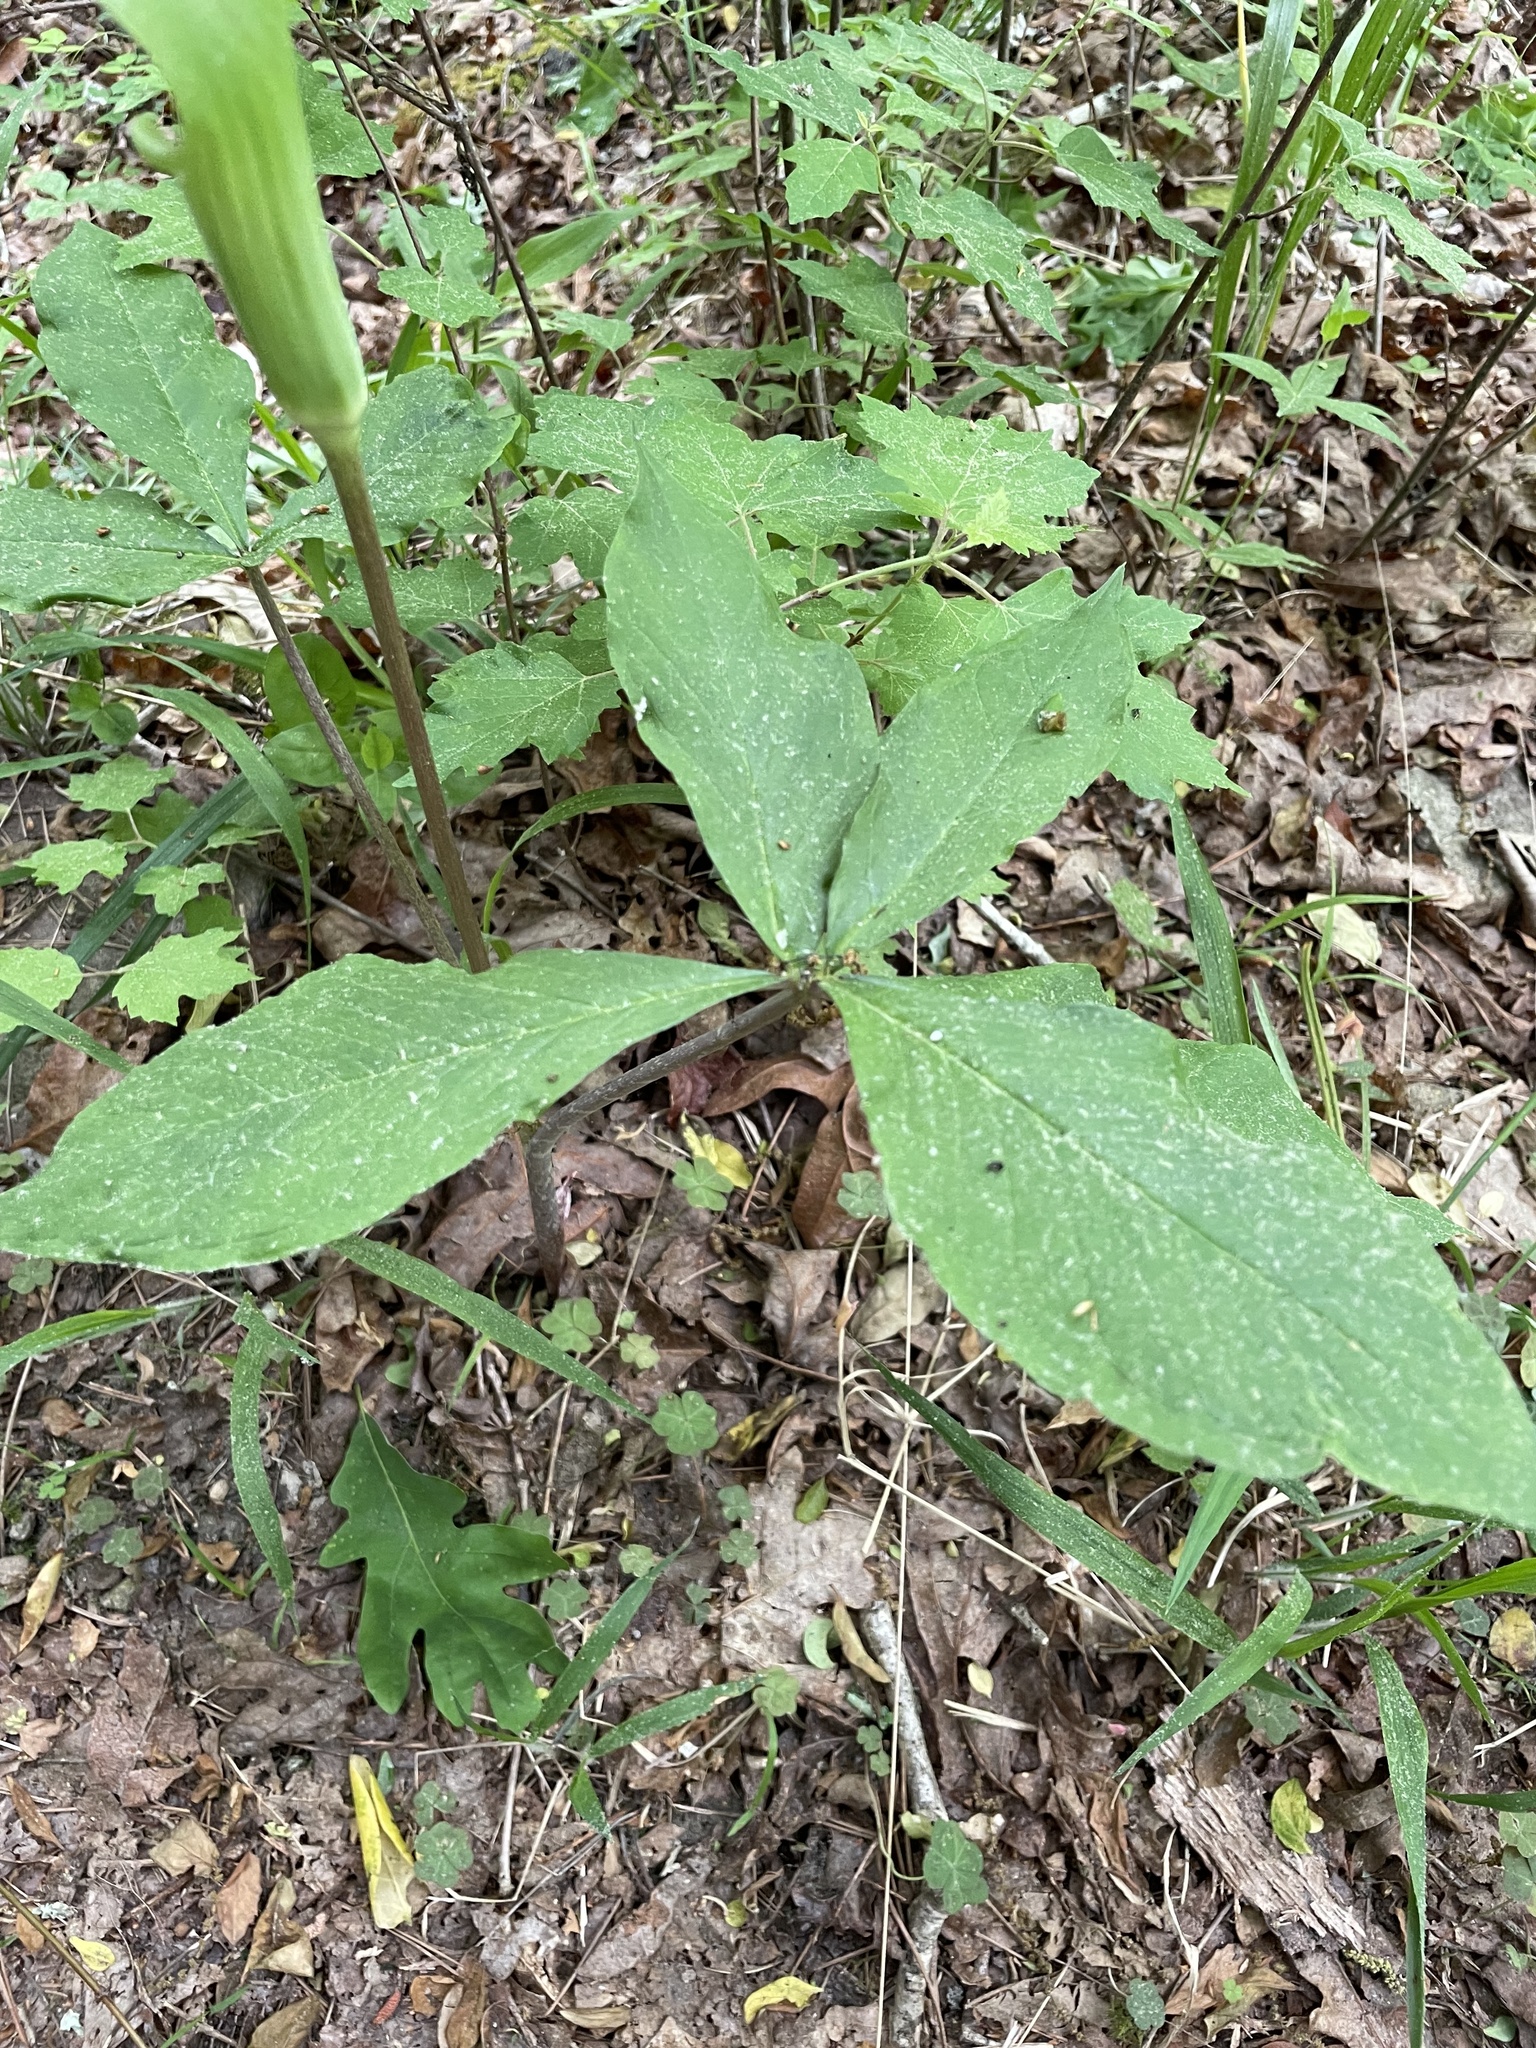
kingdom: Plantae
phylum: Tracheophyta
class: Liliopsida
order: Alismatales
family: Araceae
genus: Arisaema
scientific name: Arisaema quinatum
